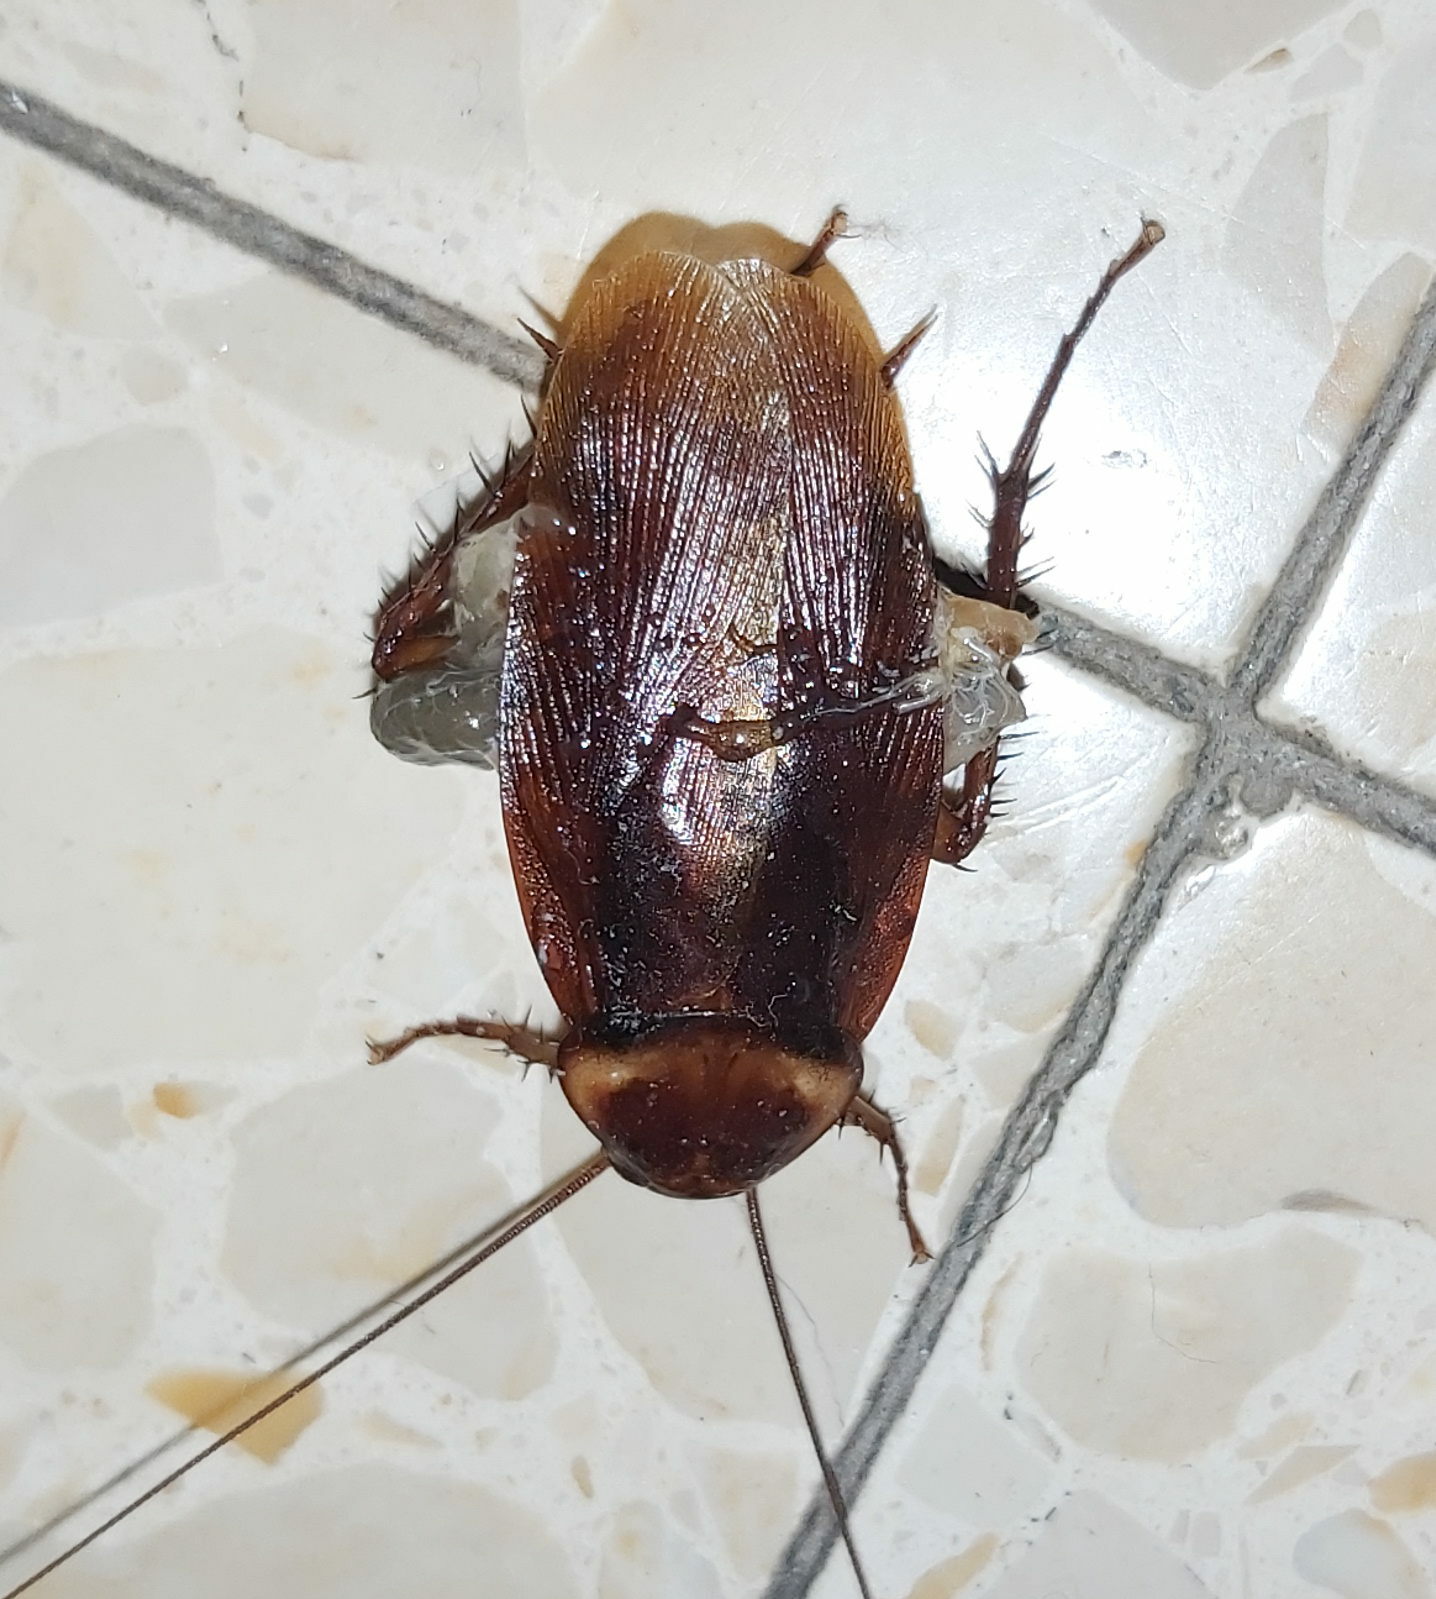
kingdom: Animalia
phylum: Arthropoda
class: Insecta
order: Blattodea
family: Blattidae
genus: Periplaneta
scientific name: Periplaneta americana
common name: American cockroach
